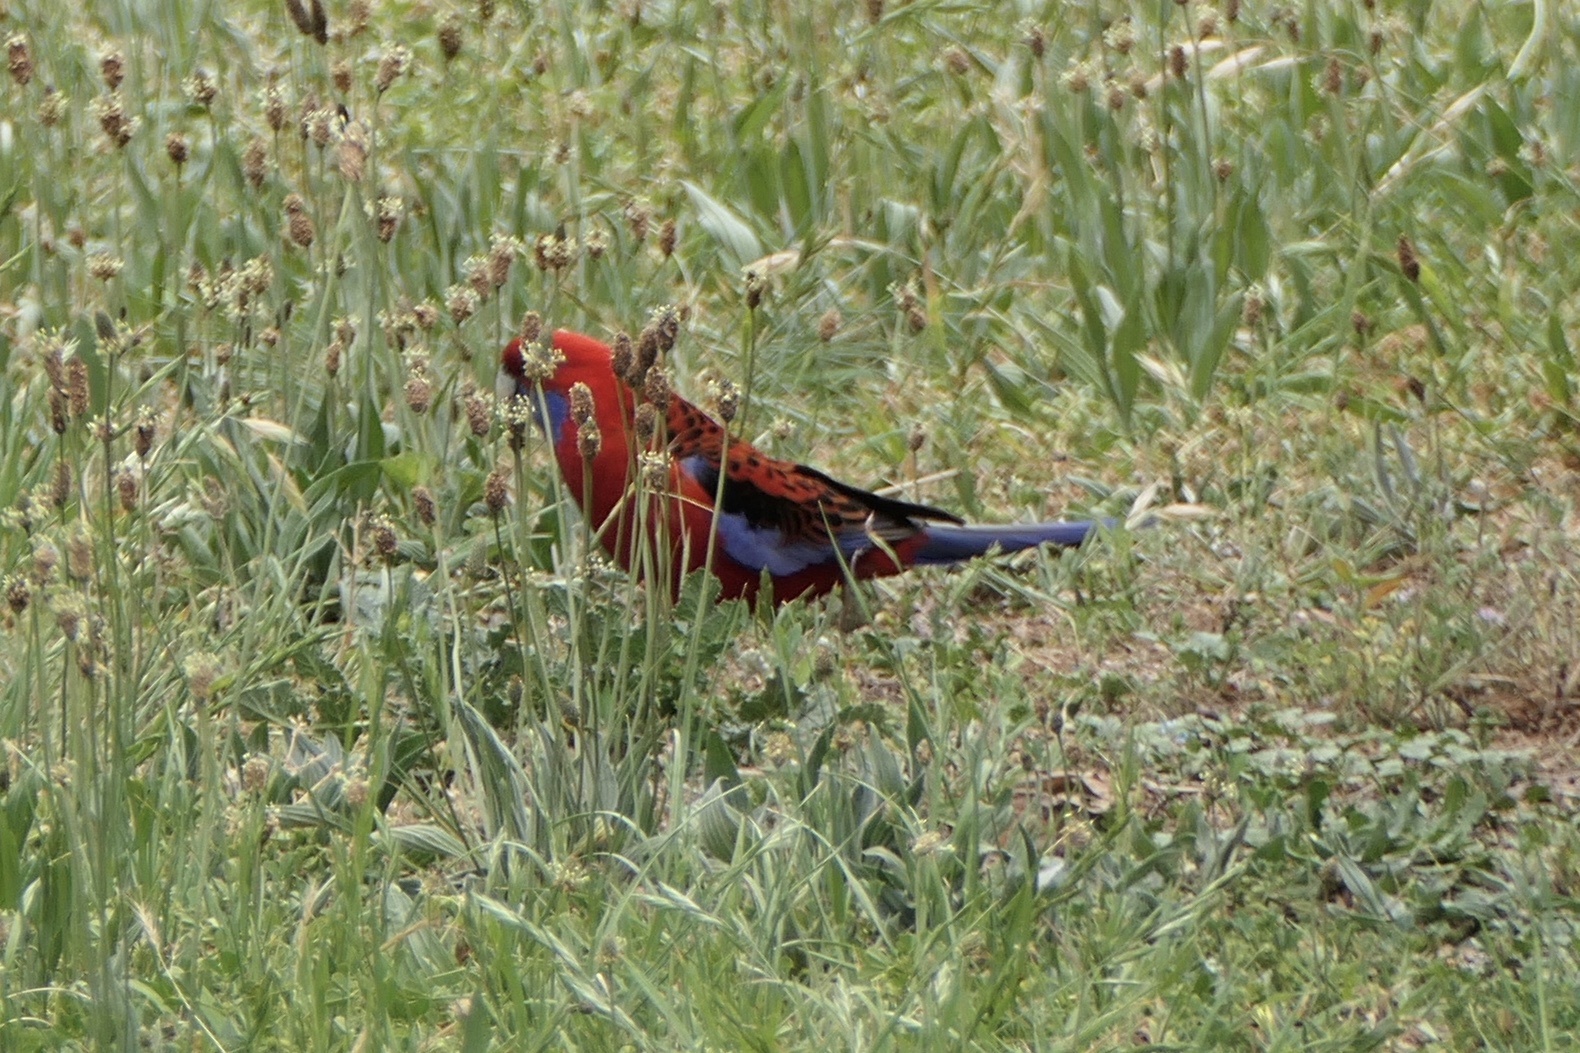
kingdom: Animalia
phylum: Chordata
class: Aves
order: Psittaciformes
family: Psittacidae
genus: Platycercus
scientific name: Platycercus elegans
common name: Crimson rosella
